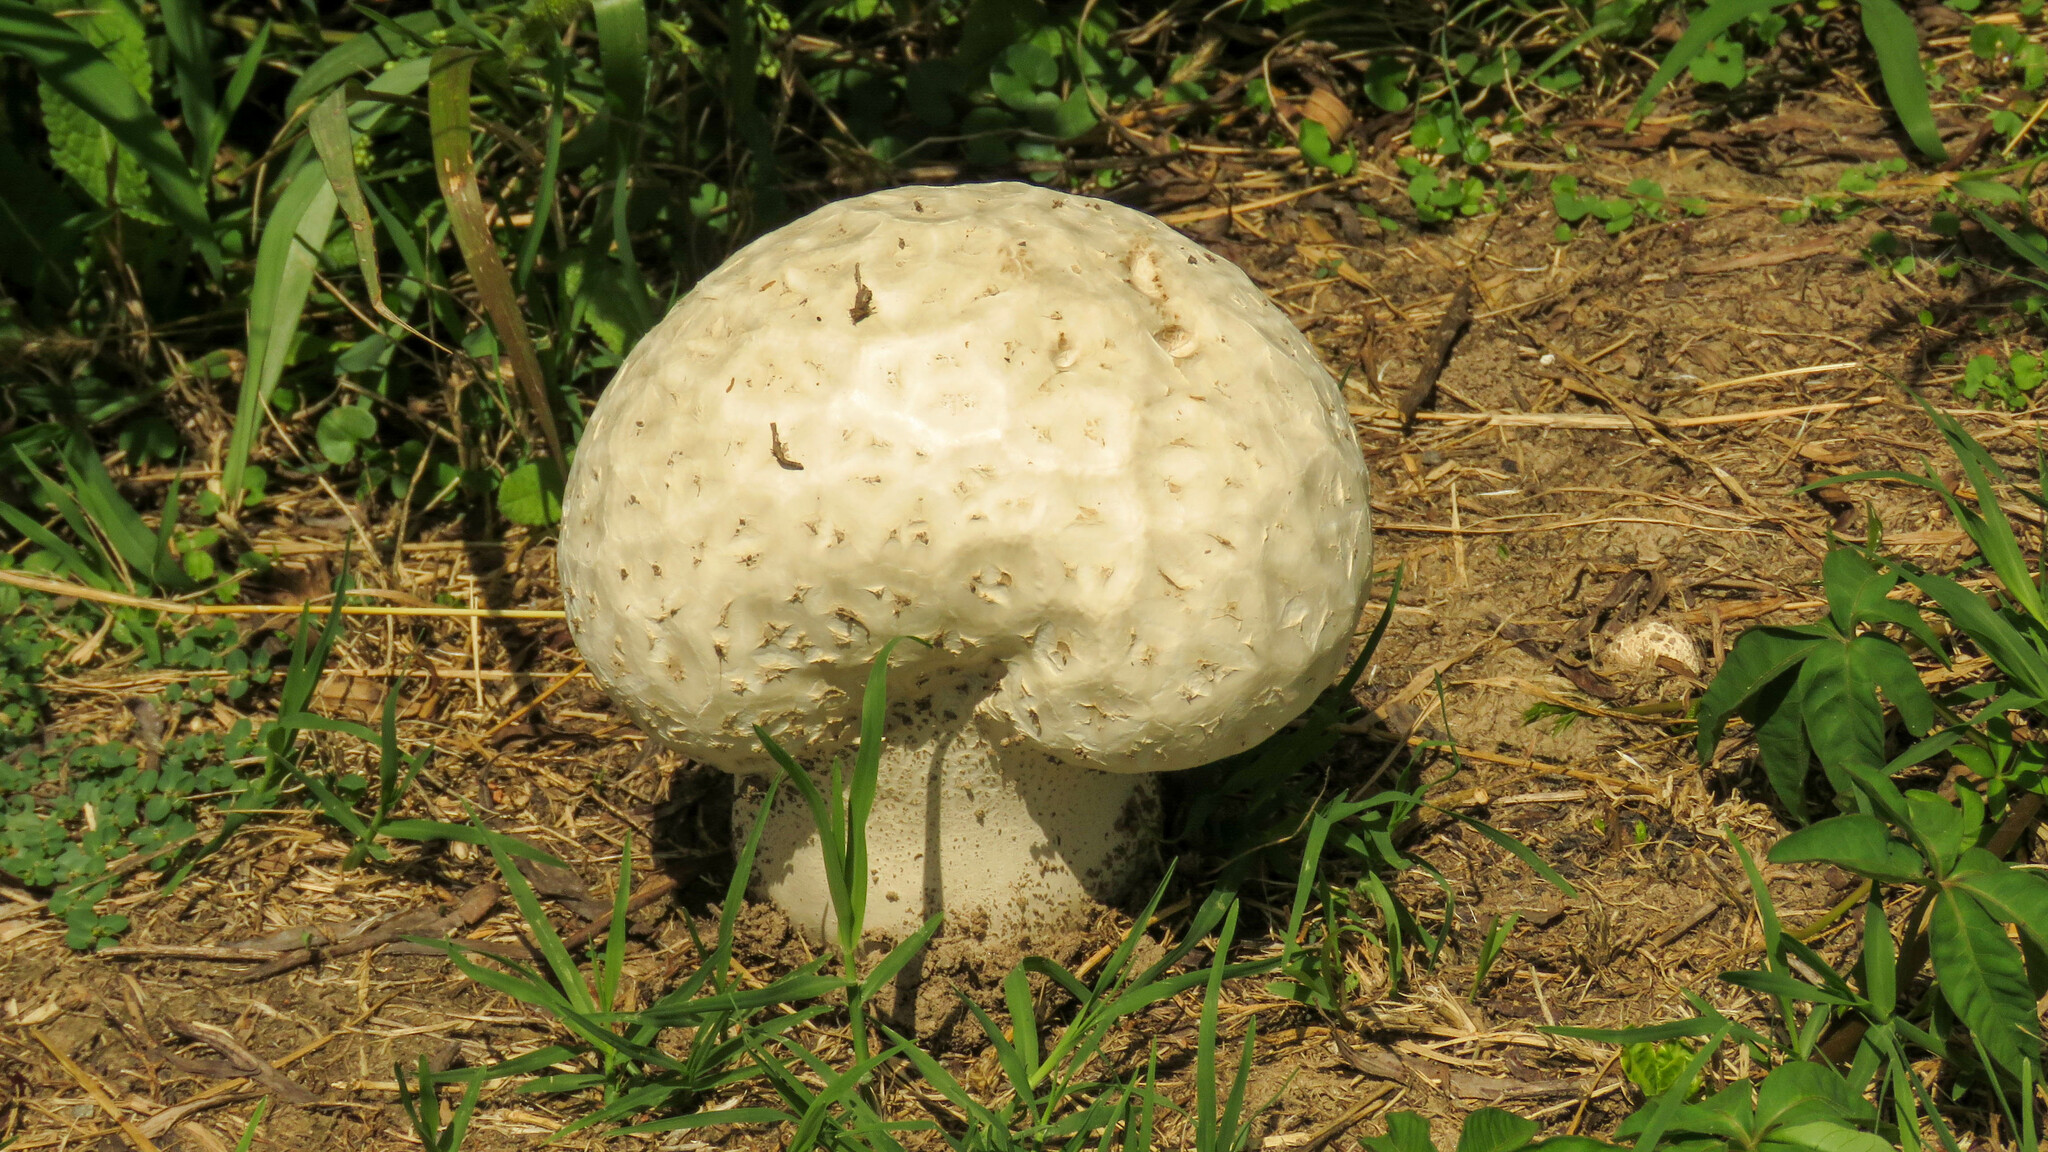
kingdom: Fungi
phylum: Basidiomycota
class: Agaricomycetes
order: Agaricales
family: Lycoperdaceae
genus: Calvatia
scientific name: Calvatia cyathiformis
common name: Purple-spored puffball
